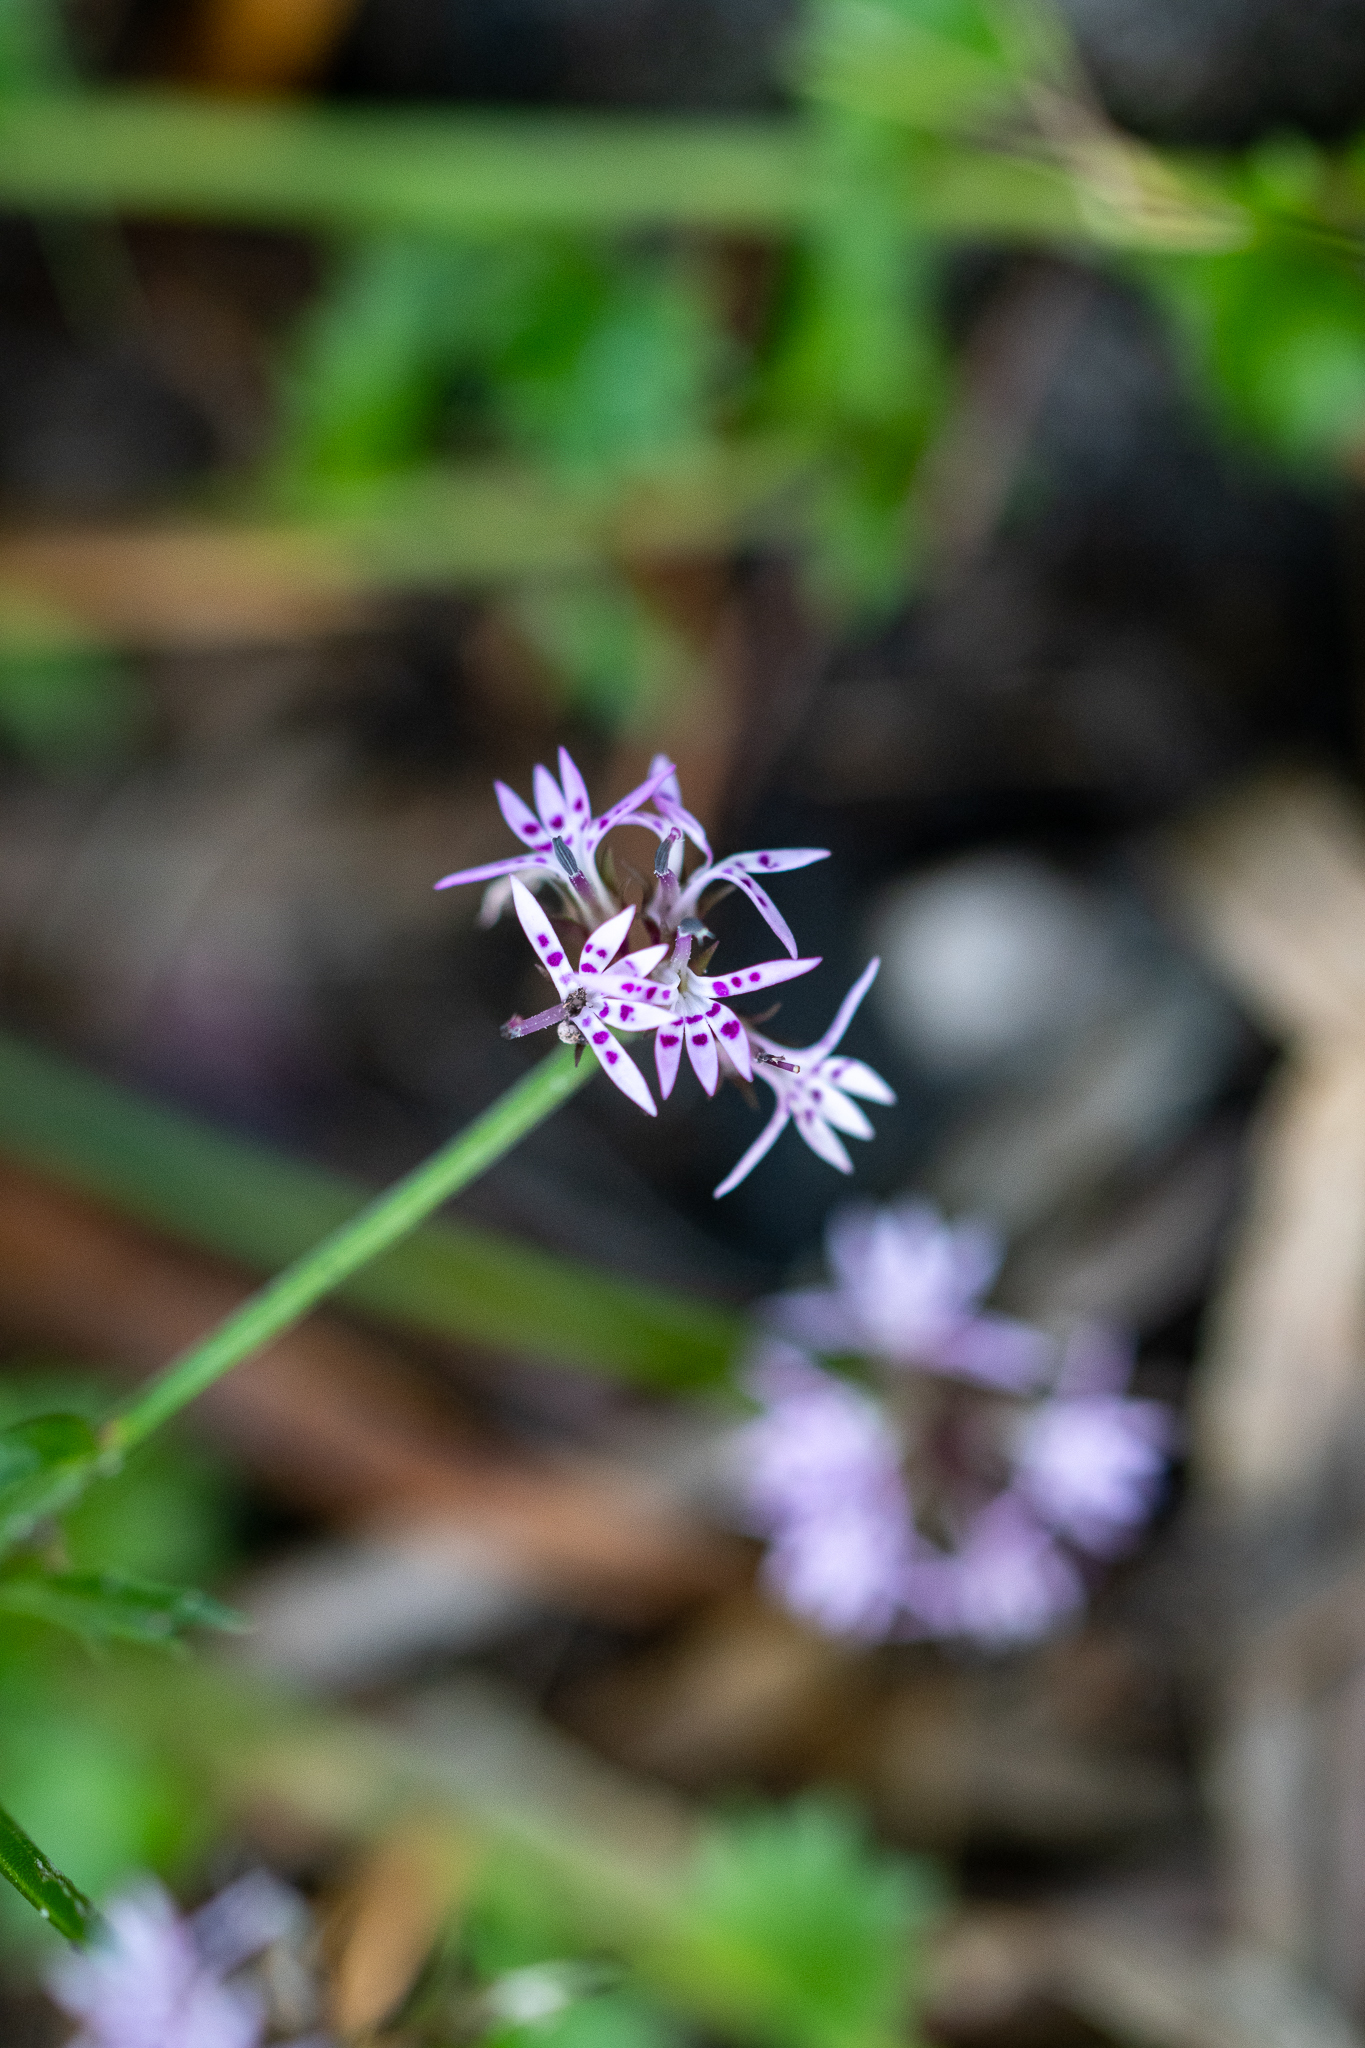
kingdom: Plantae
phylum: Tracheophyta
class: Magnoliopsida
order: Asterales
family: Campanulaceae
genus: Lobelia
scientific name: Lobelia jasionoides
